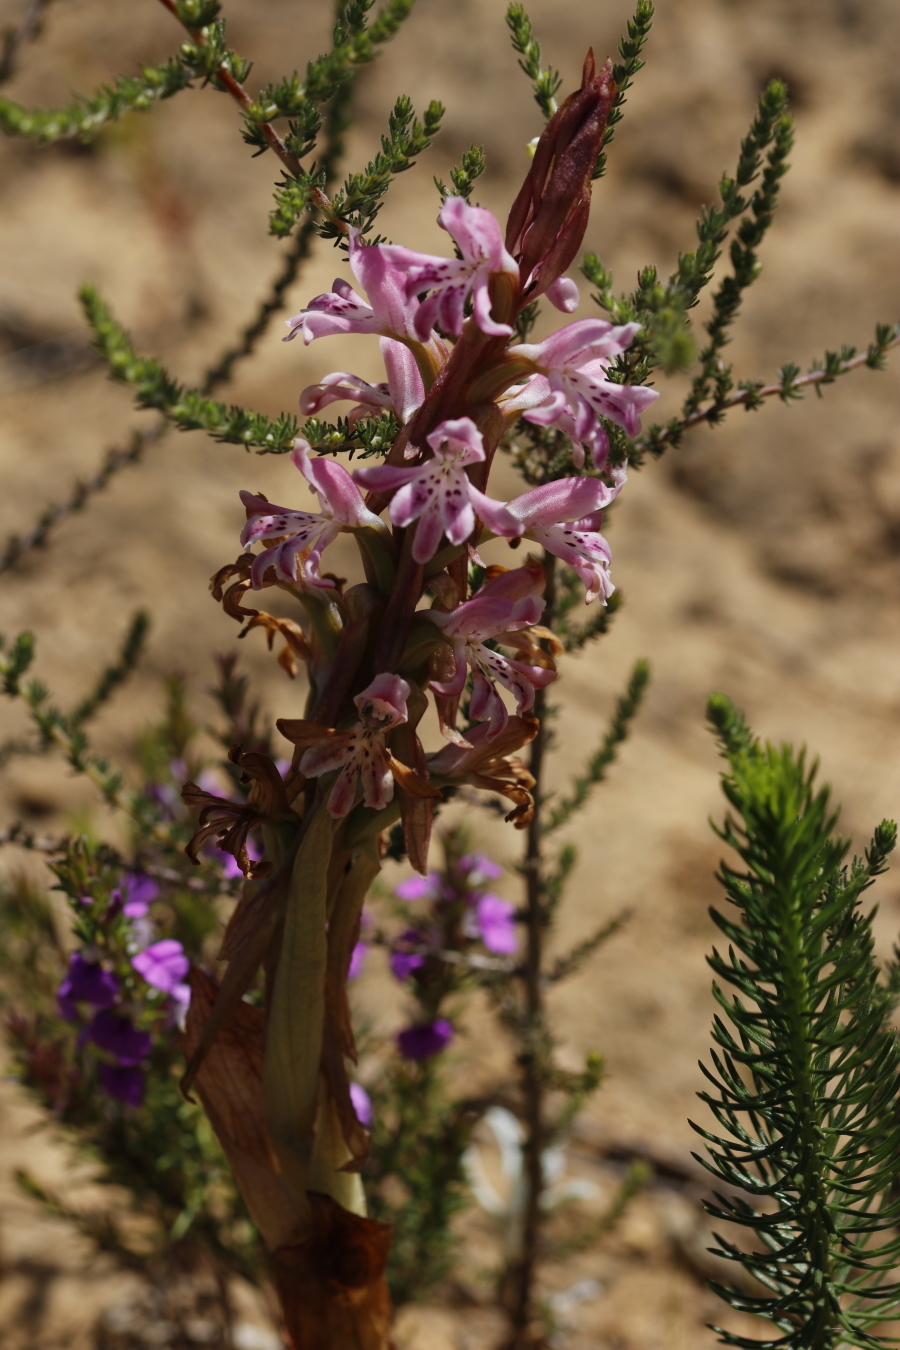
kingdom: Plantae
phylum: Tracheophyta
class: Liliopsida
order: Asparagales
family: Orchidaceae
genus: Satyrium
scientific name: Satyrium erectum
